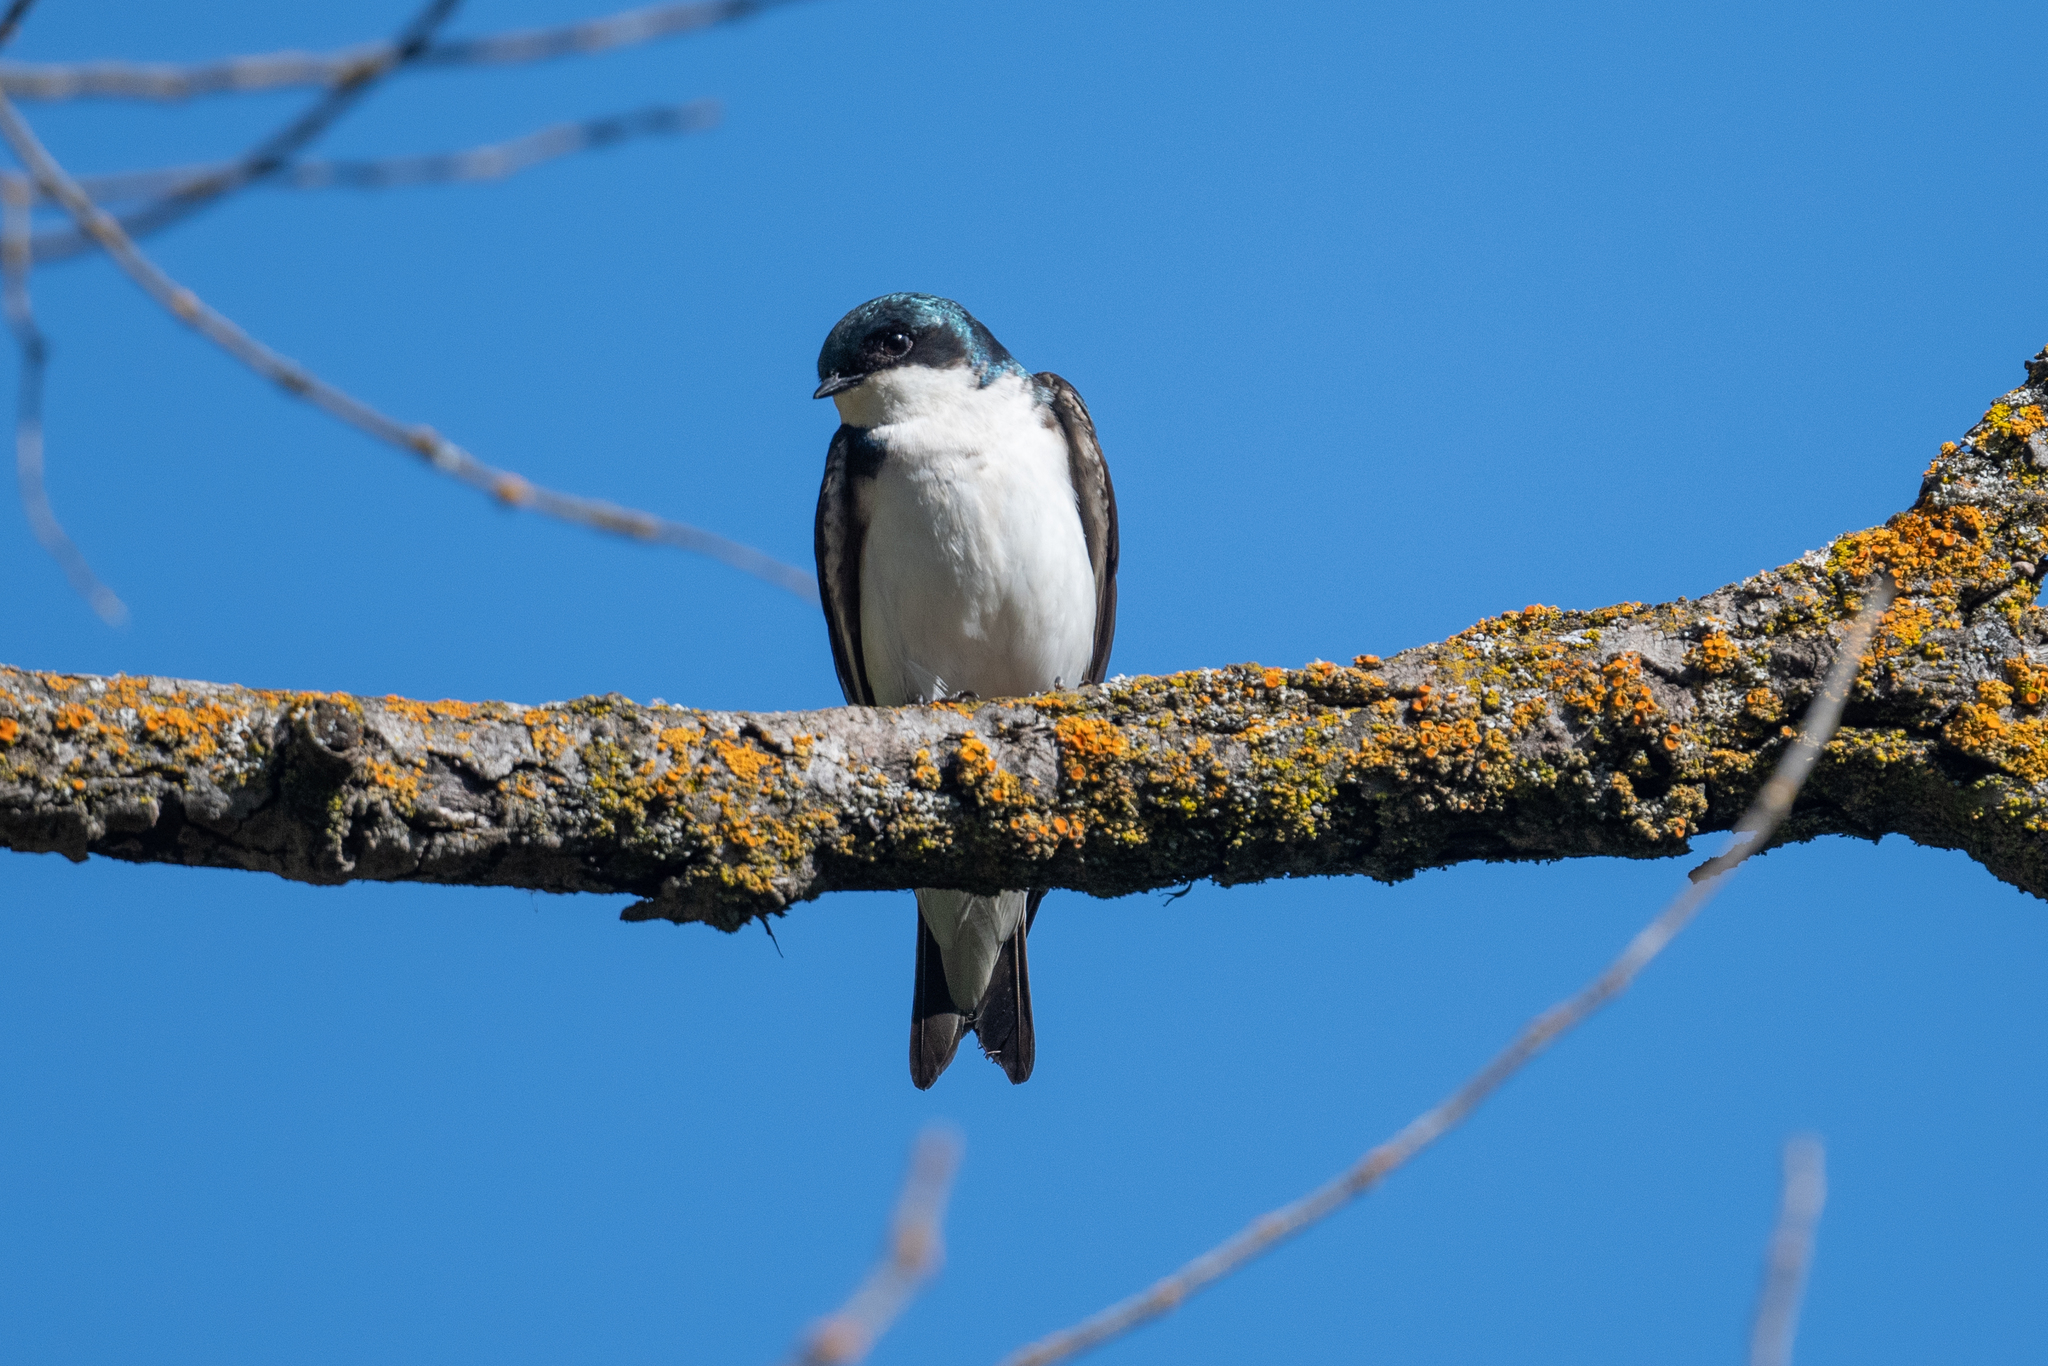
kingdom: Animalia
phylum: Chordata
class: Aves
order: Passeriformes
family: Hirundinidae
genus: Tachycineta
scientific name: Tachycineta bicolor
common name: Tree swallow
